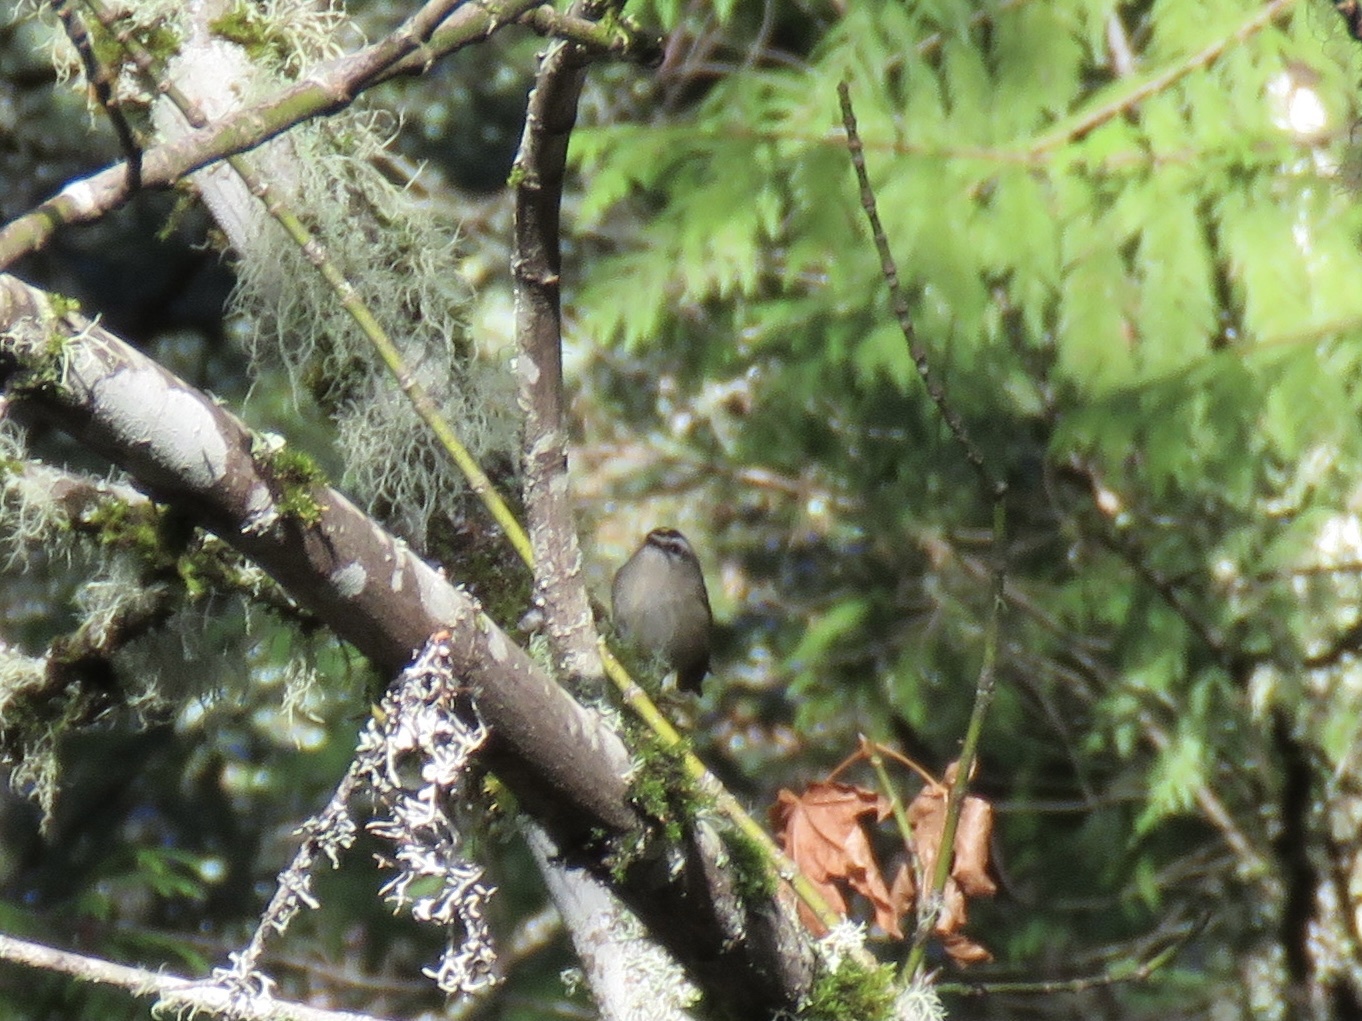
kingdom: Animalia
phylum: Chordata
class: Aves
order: Passeriformes
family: Regulidae
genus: Regulus
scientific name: Regulus satrapa
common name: Golden-crowned kinglet
